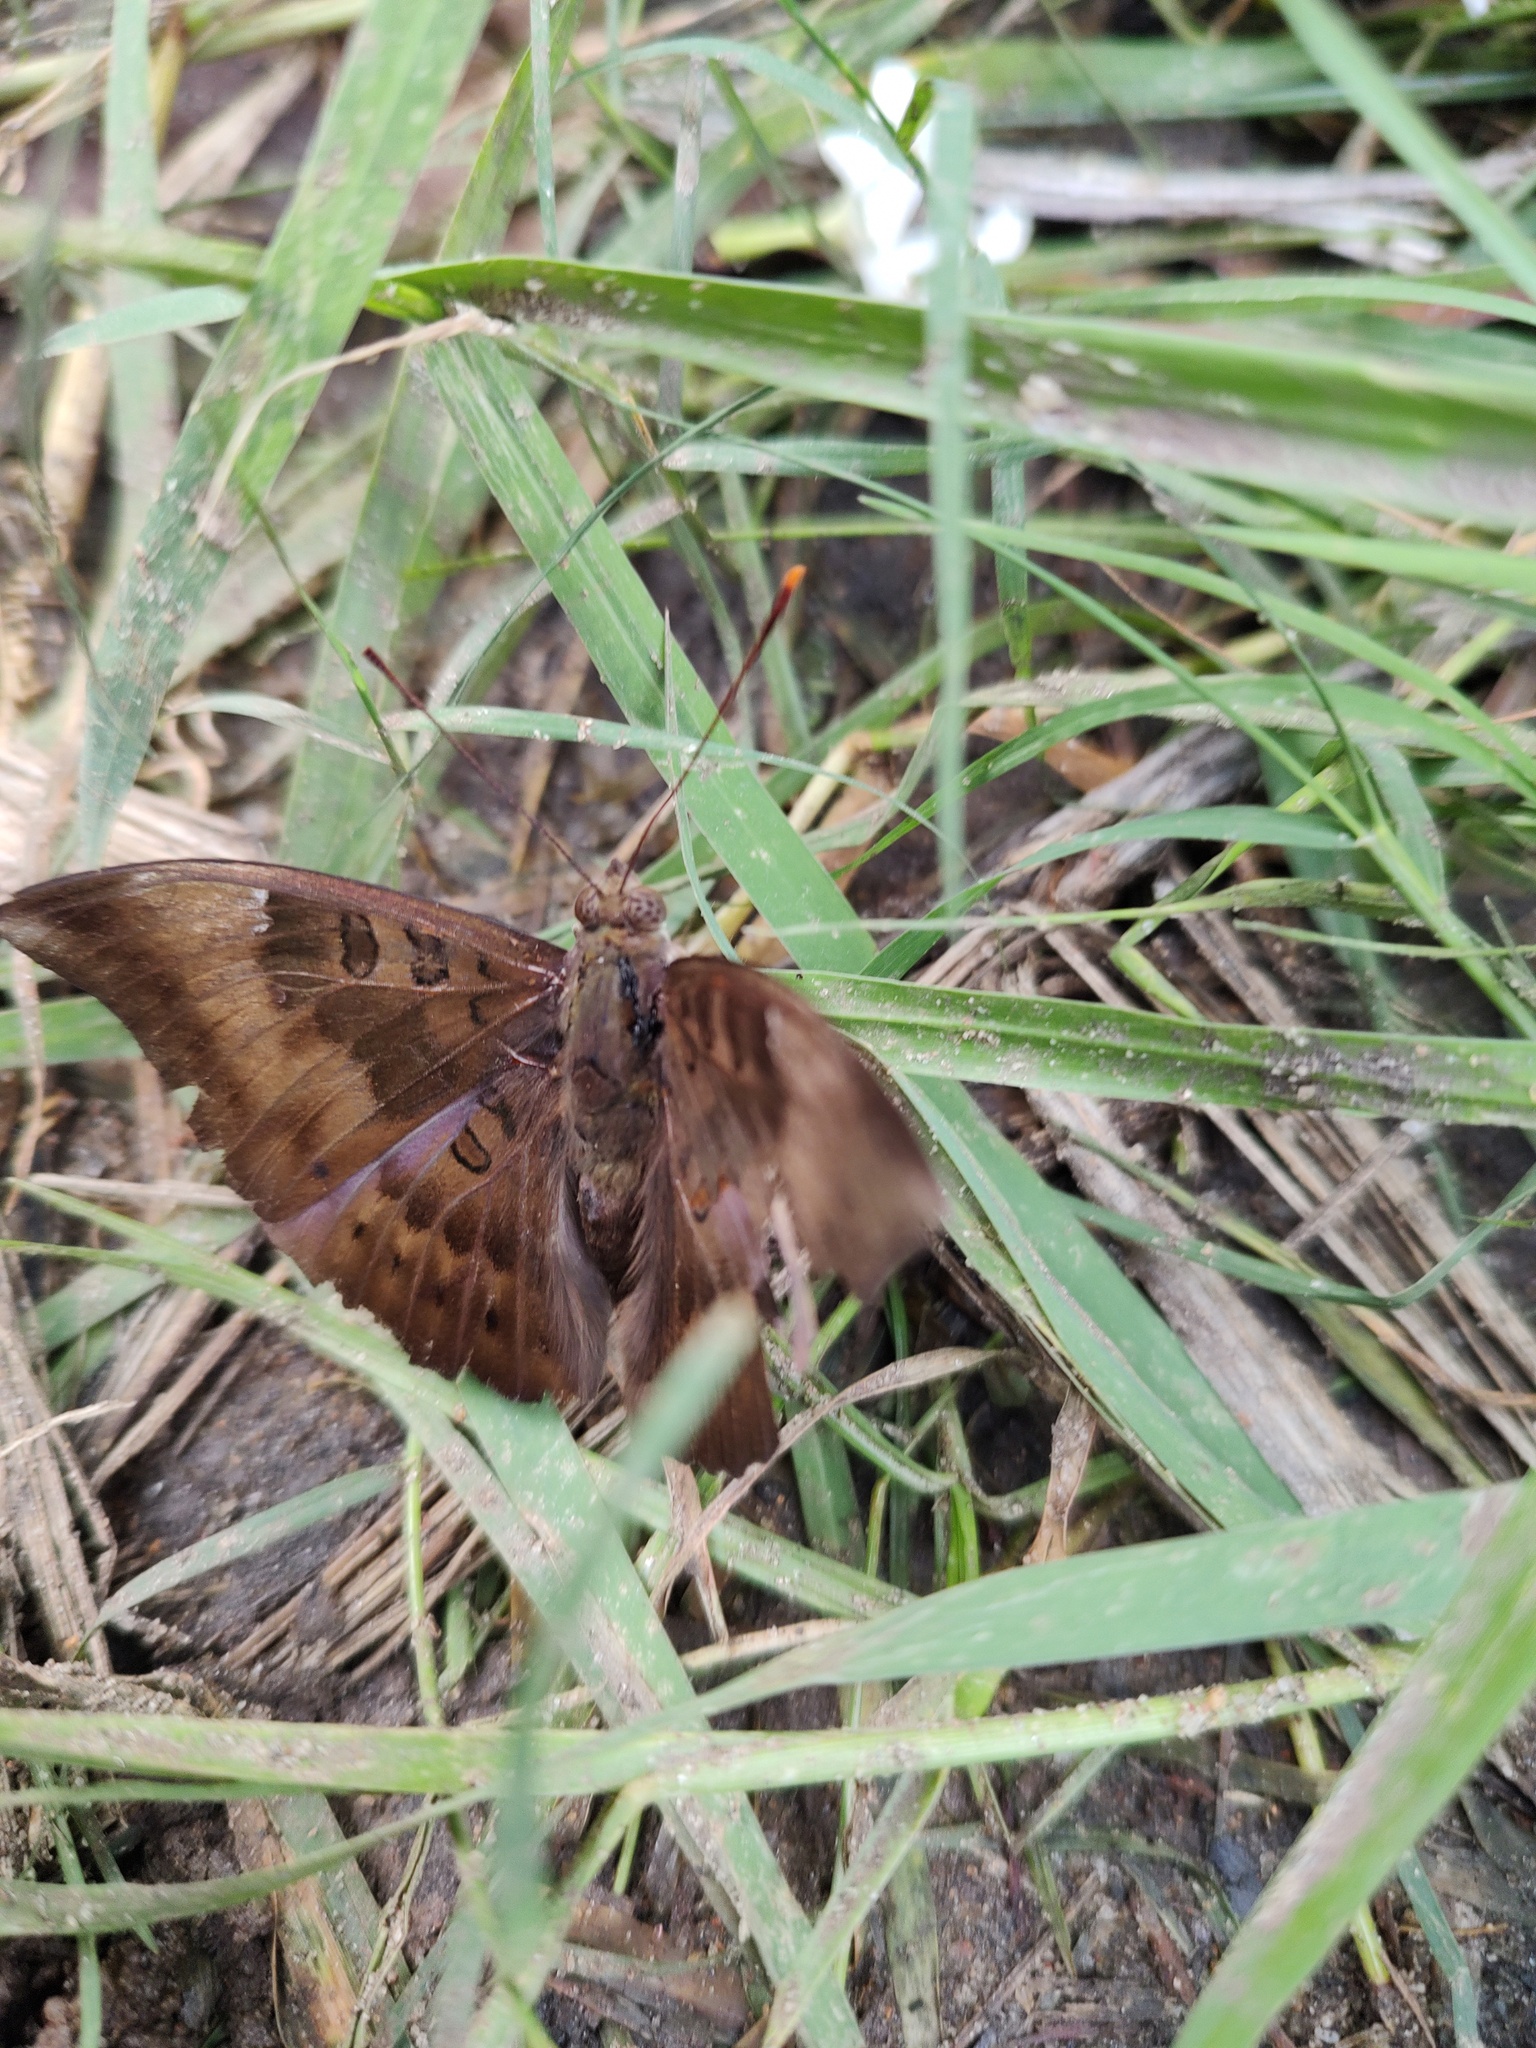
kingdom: Animalia
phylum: Arthropoda
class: Insecta
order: Lepidoptera
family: Nymphalidae
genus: Euthalia
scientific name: Euthalia aconthea
